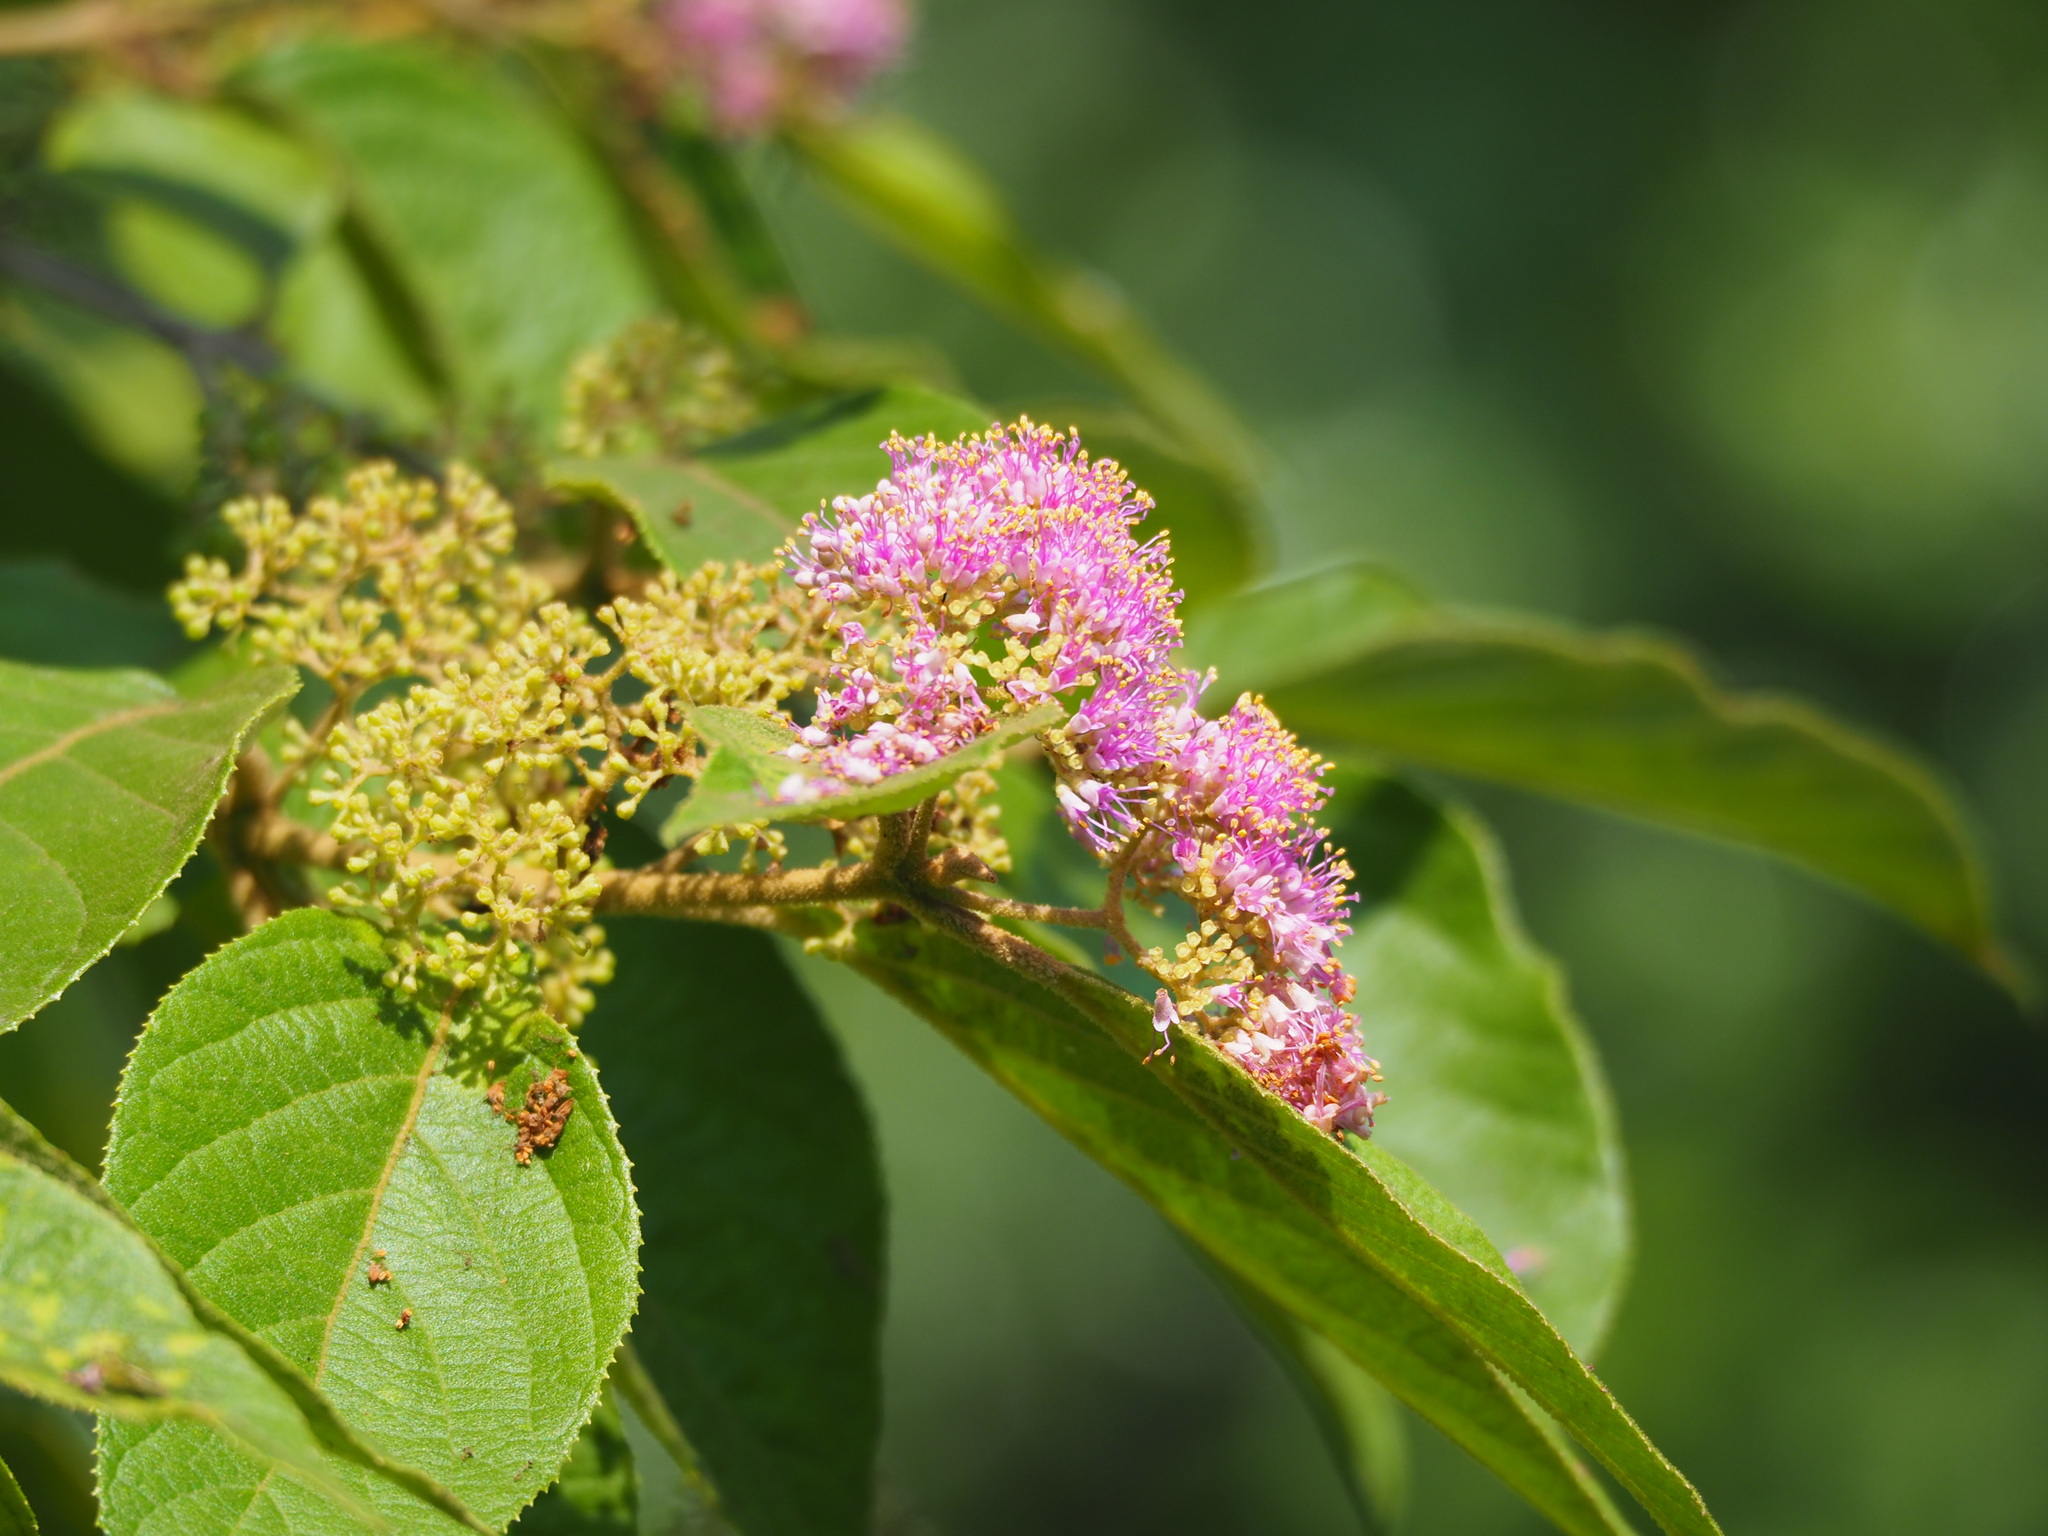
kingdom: Plantae
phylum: Tracheophyta
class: Magnoliopsida
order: Lamiales
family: Lamiaceae
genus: Callicarpa
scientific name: Callicarpa pedunculata
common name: Velvetleaf
